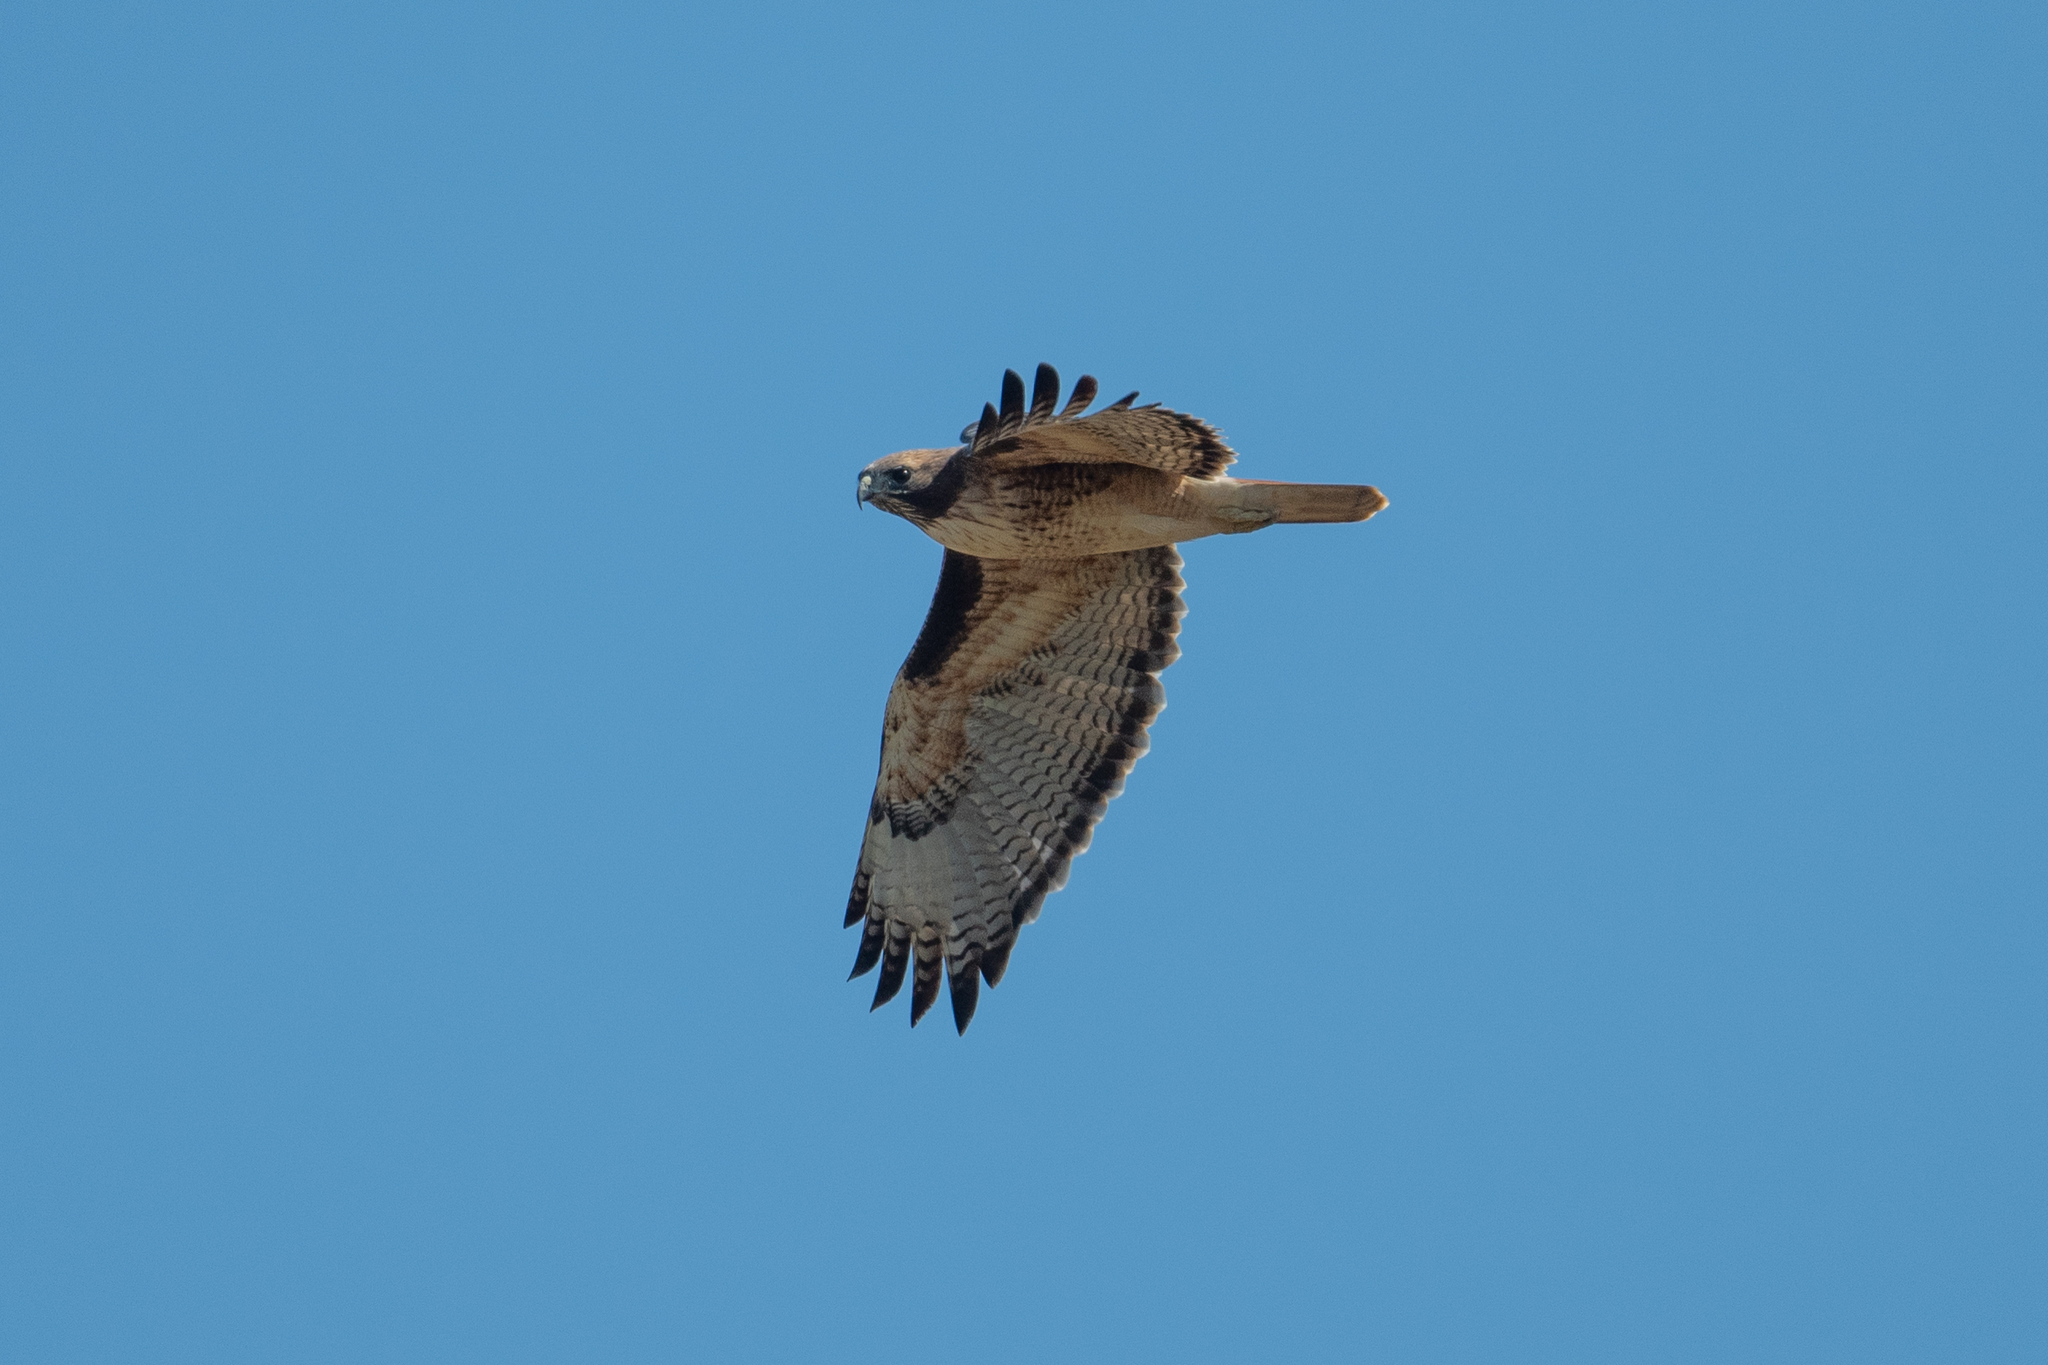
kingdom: Animalia
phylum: Chordata
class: Aves
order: Accipitriformes
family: Accipitridae
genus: Buteo
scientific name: Buteo jamaicensis
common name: Red-tailed hawk
